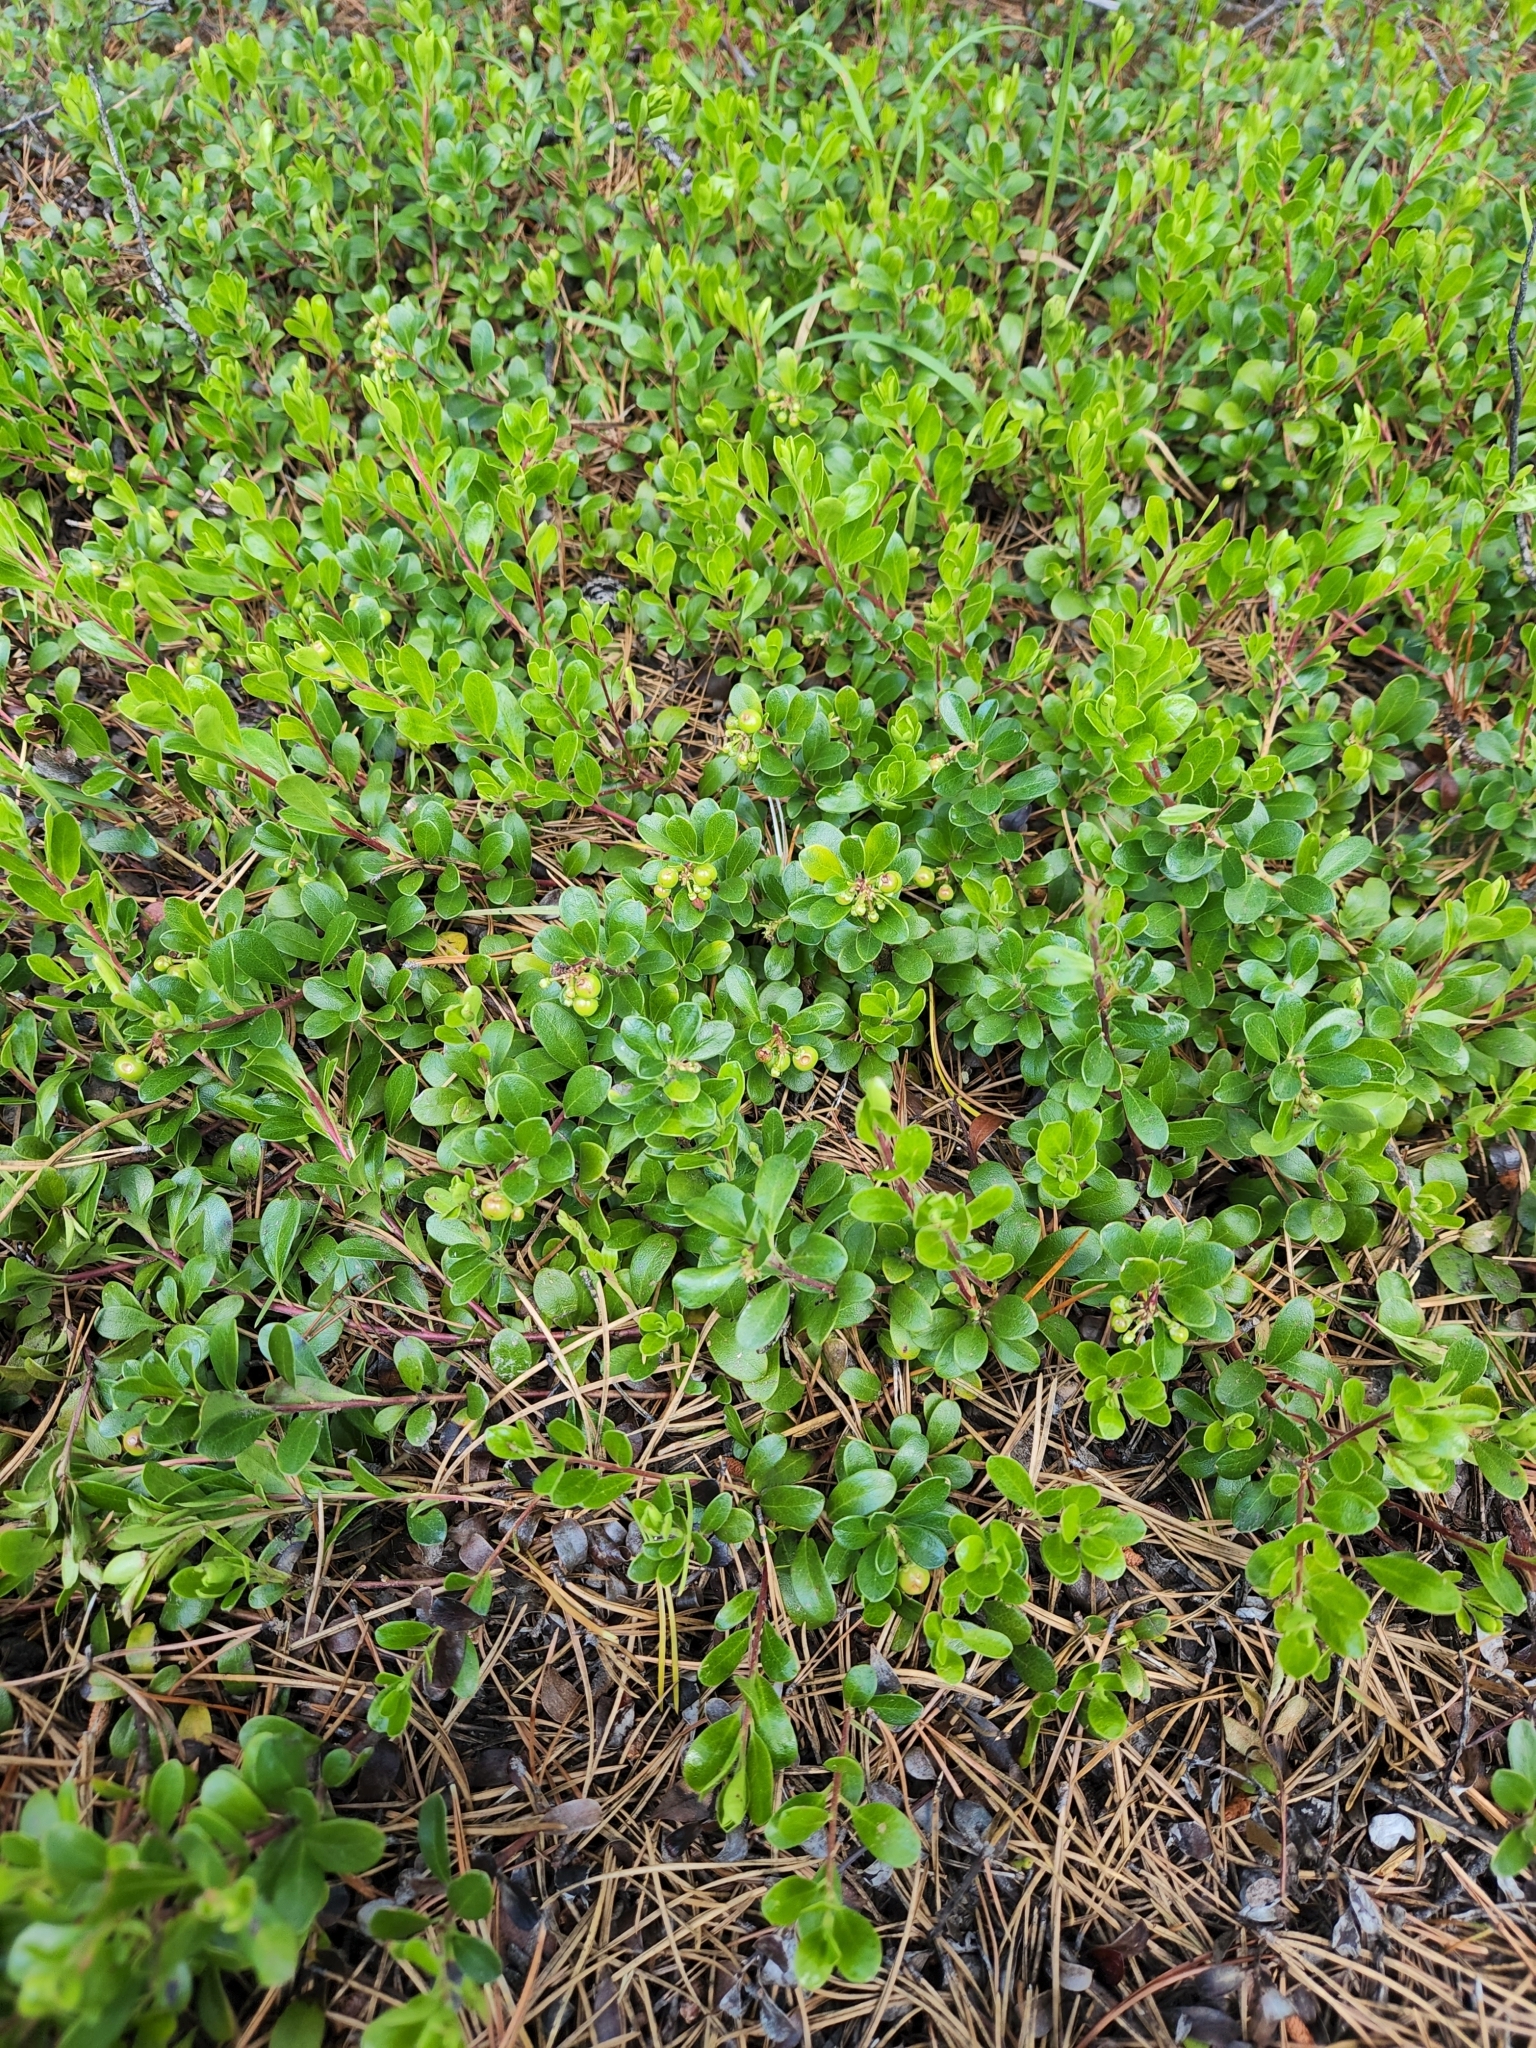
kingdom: Plantae
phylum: Tracheophyta
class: Magnoliopsida
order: Ericales
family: Ericaceae
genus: Arctostaphylos
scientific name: Arctostaphylos uva-ursi
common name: Bearberry
